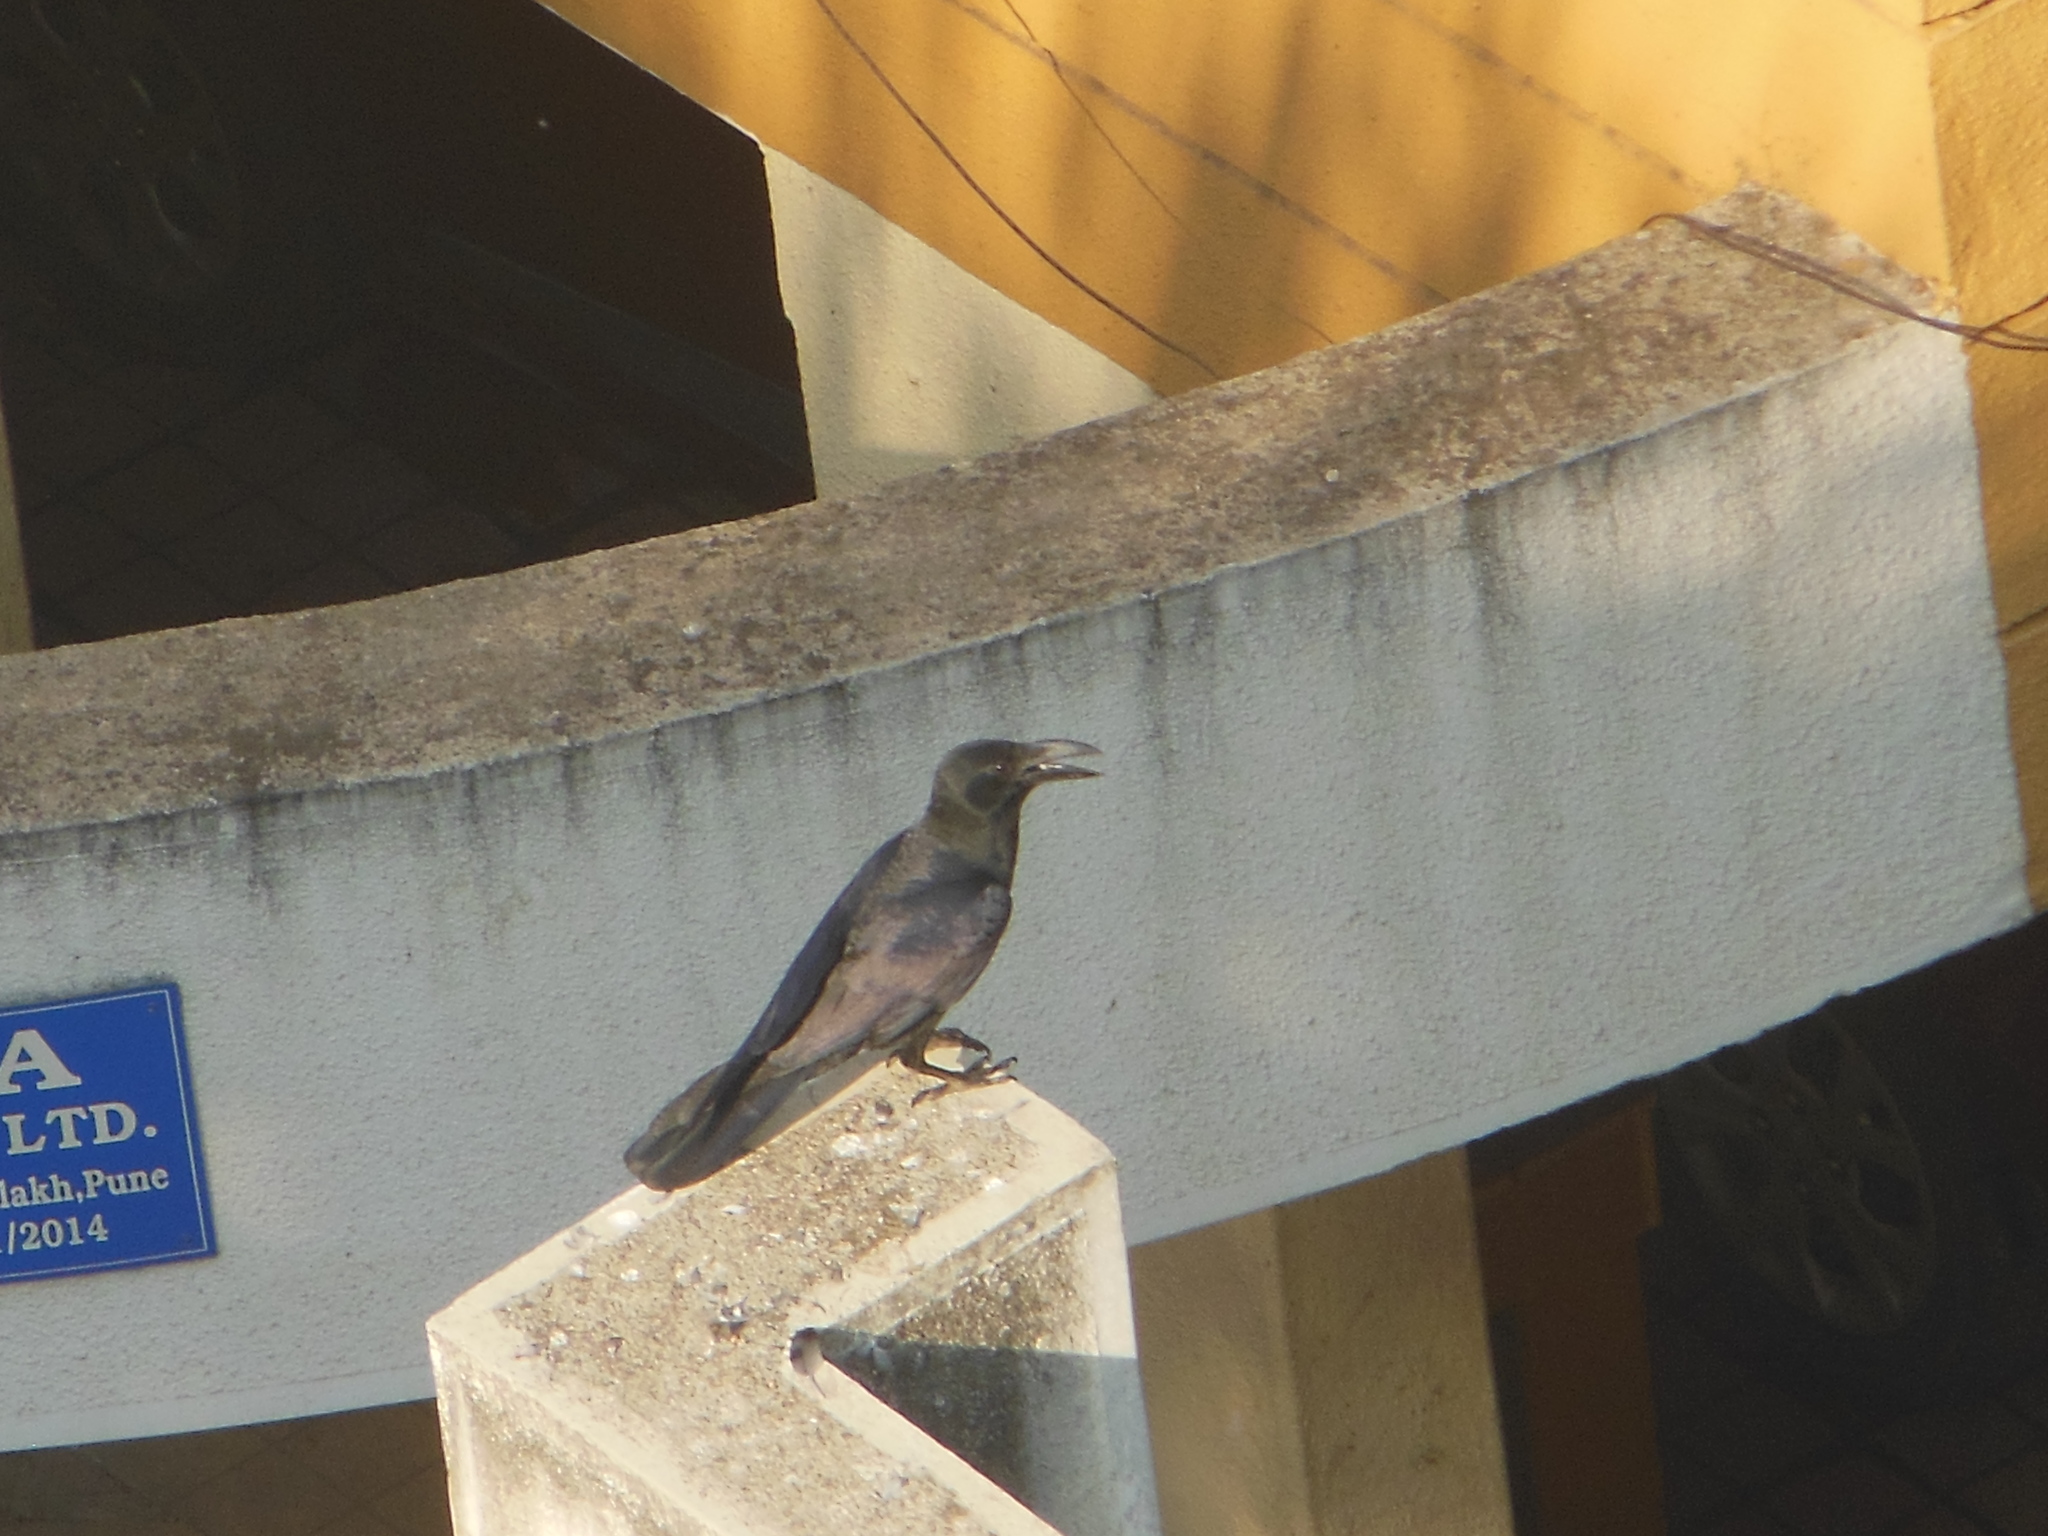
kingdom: Animalia
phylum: Chordata
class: Aves
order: Passeriformes
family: Corvidae
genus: Corvus
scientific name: Corvus macrorhynchos
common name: Large-billed crow
